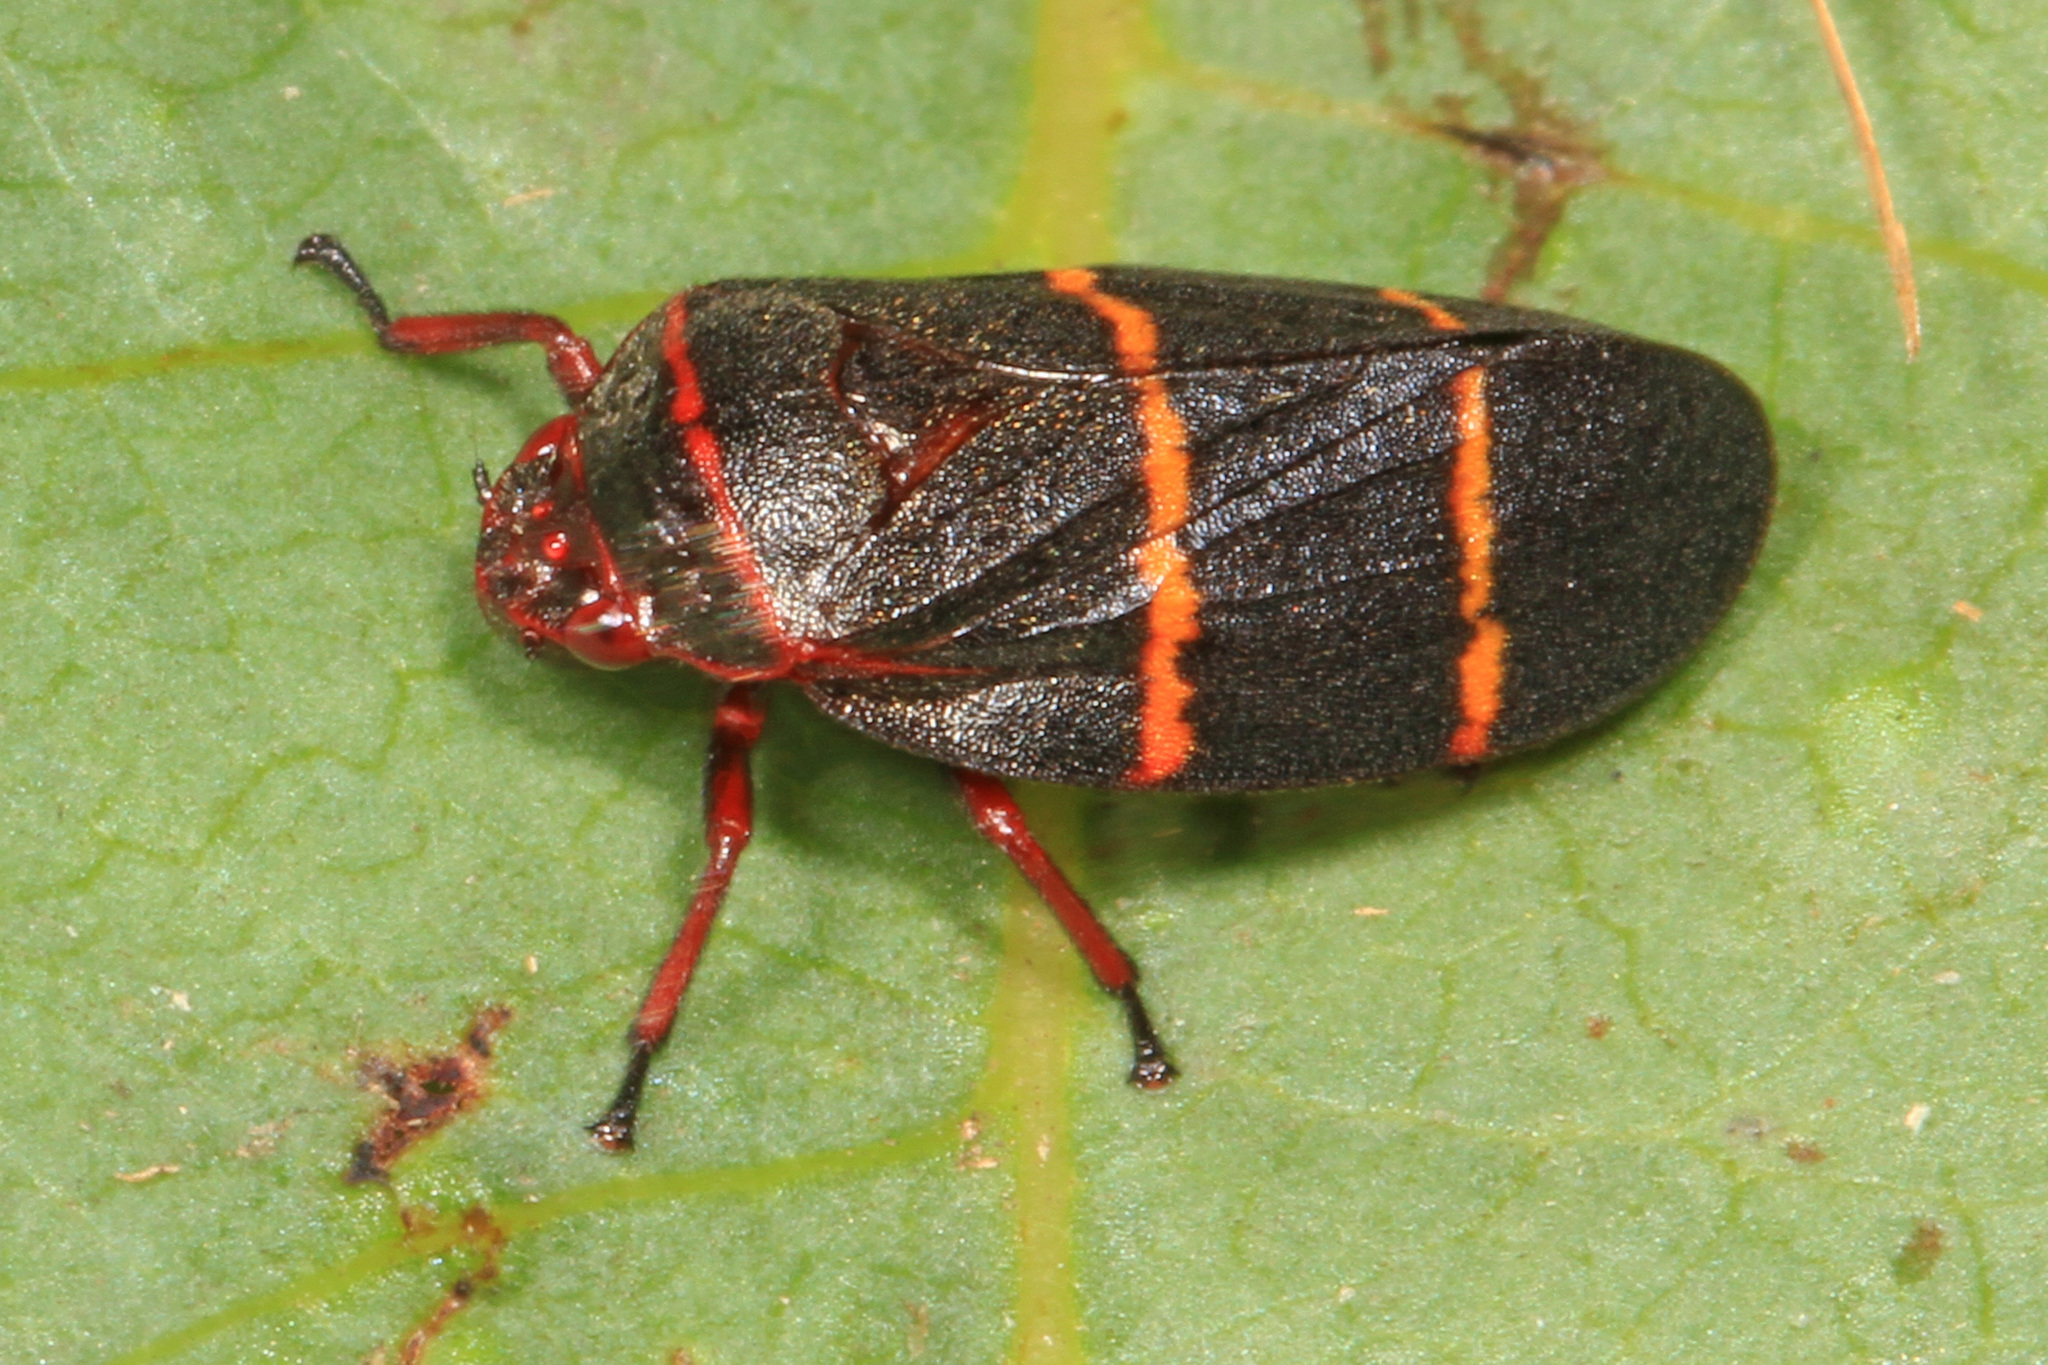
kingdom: Animalia
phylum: Arthropoda
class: Insecta
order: Hemiptera
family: Cercopidae
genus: Prosapia
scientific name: Prosapia bicincta
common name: Twolined spittlebug
